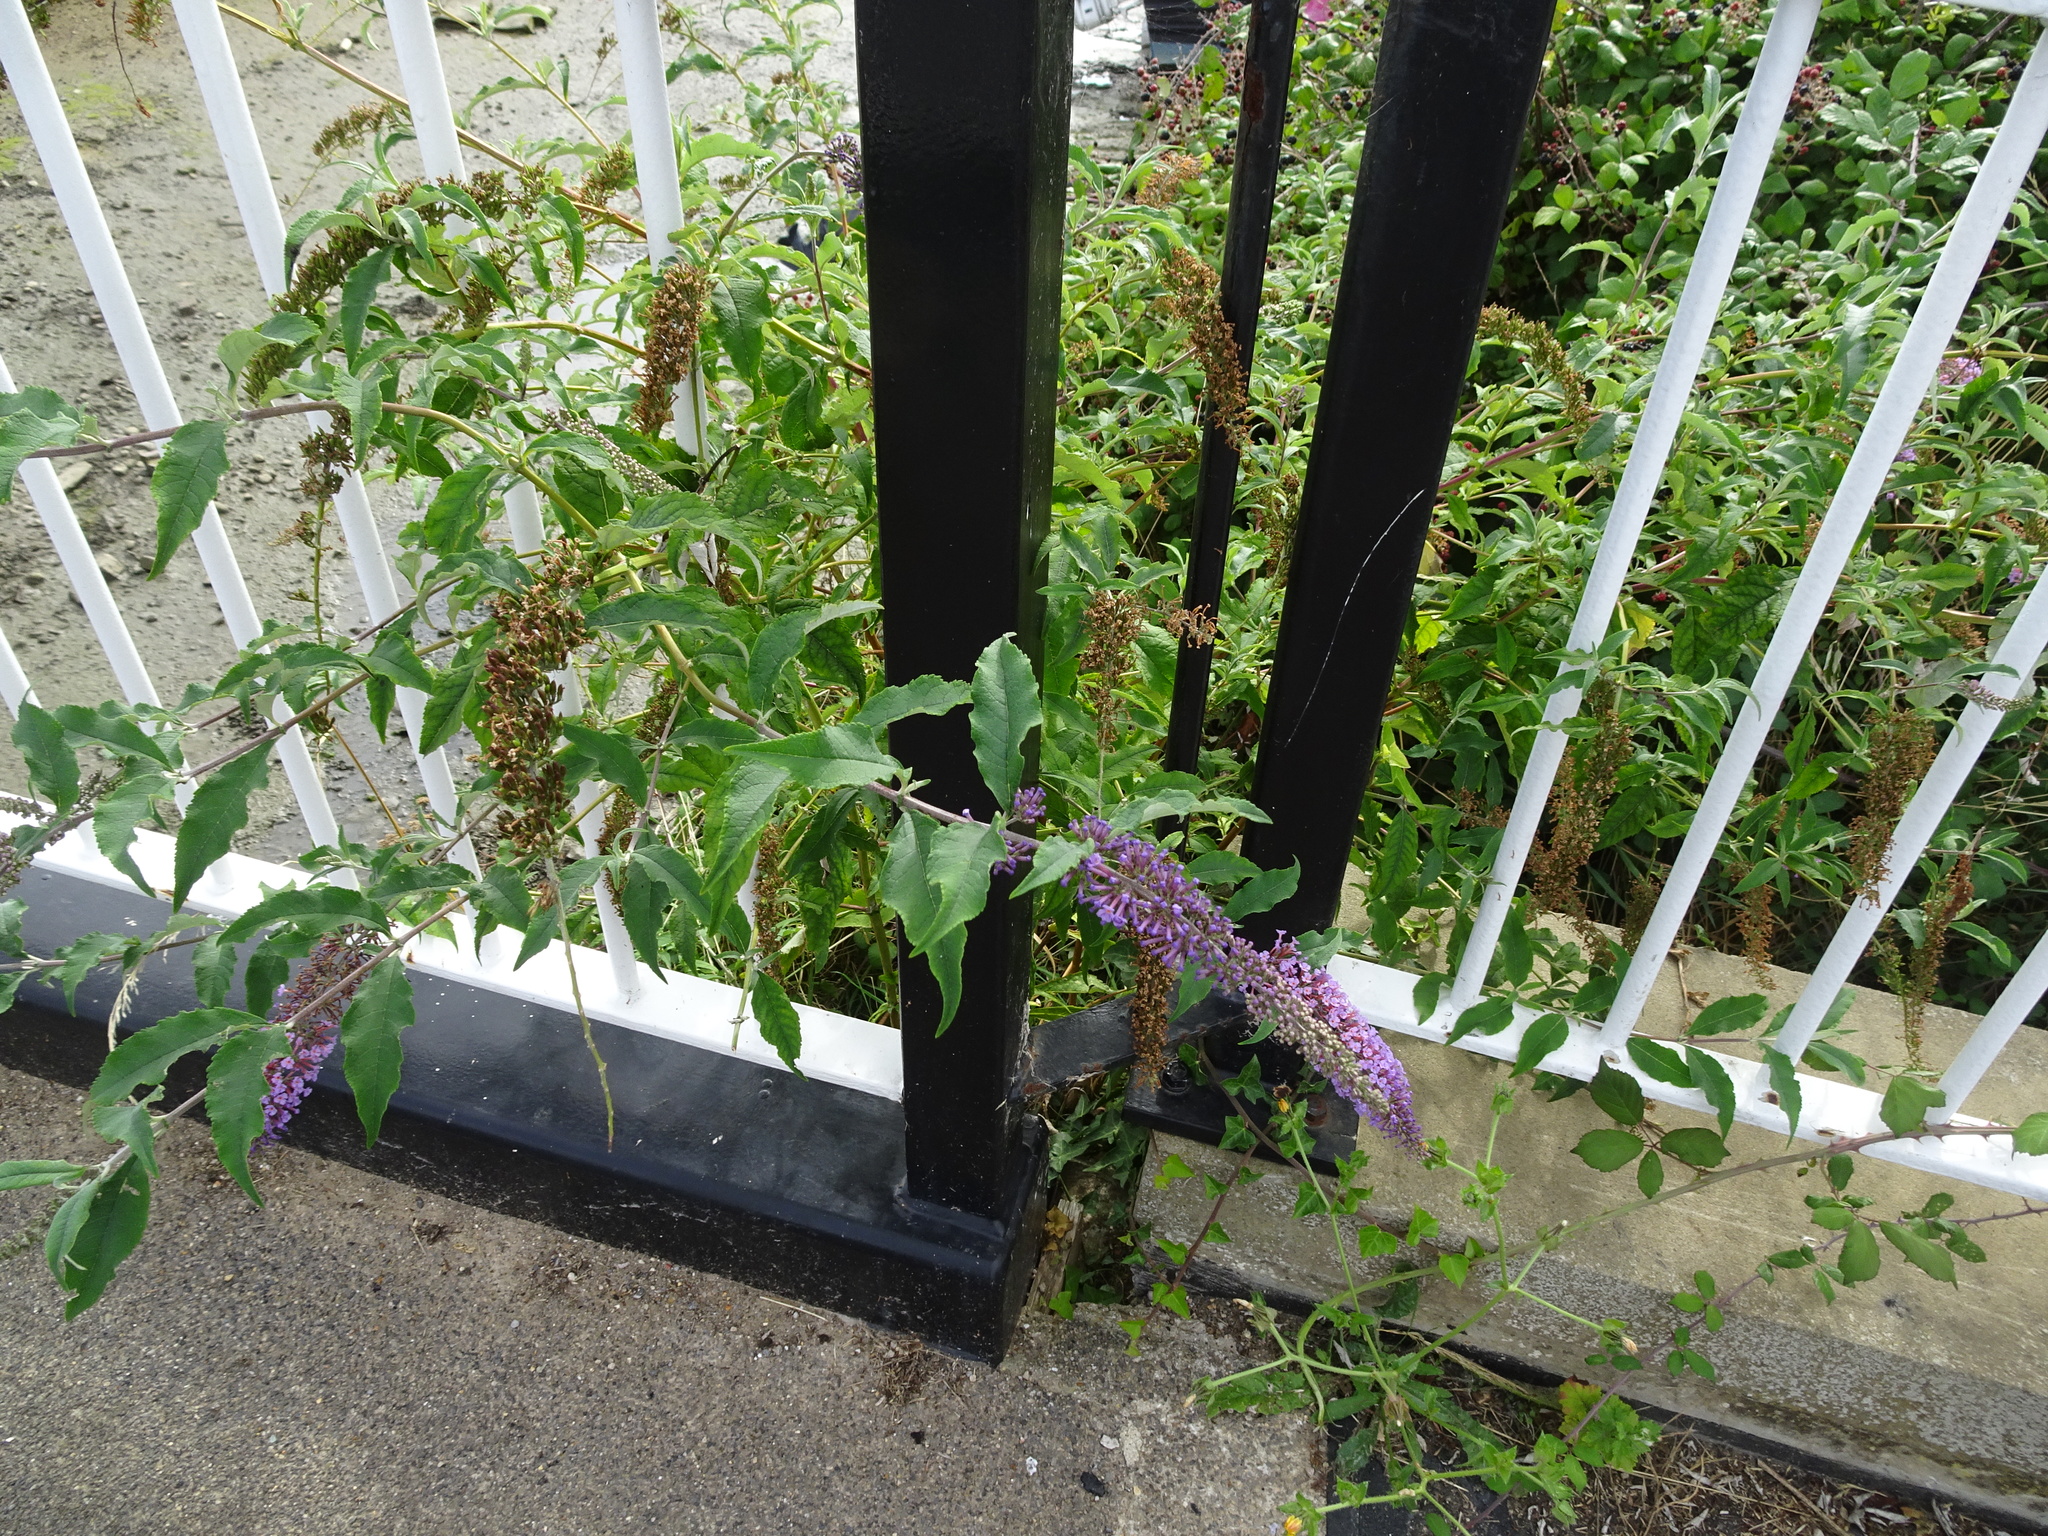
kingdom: Plantae
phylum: Tracheophyta
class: Magnoliopsida
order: Lamiales
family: Scrophulariaceae
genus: Buddleja
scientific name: Buddleja davidii
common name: Butterfly-bush
